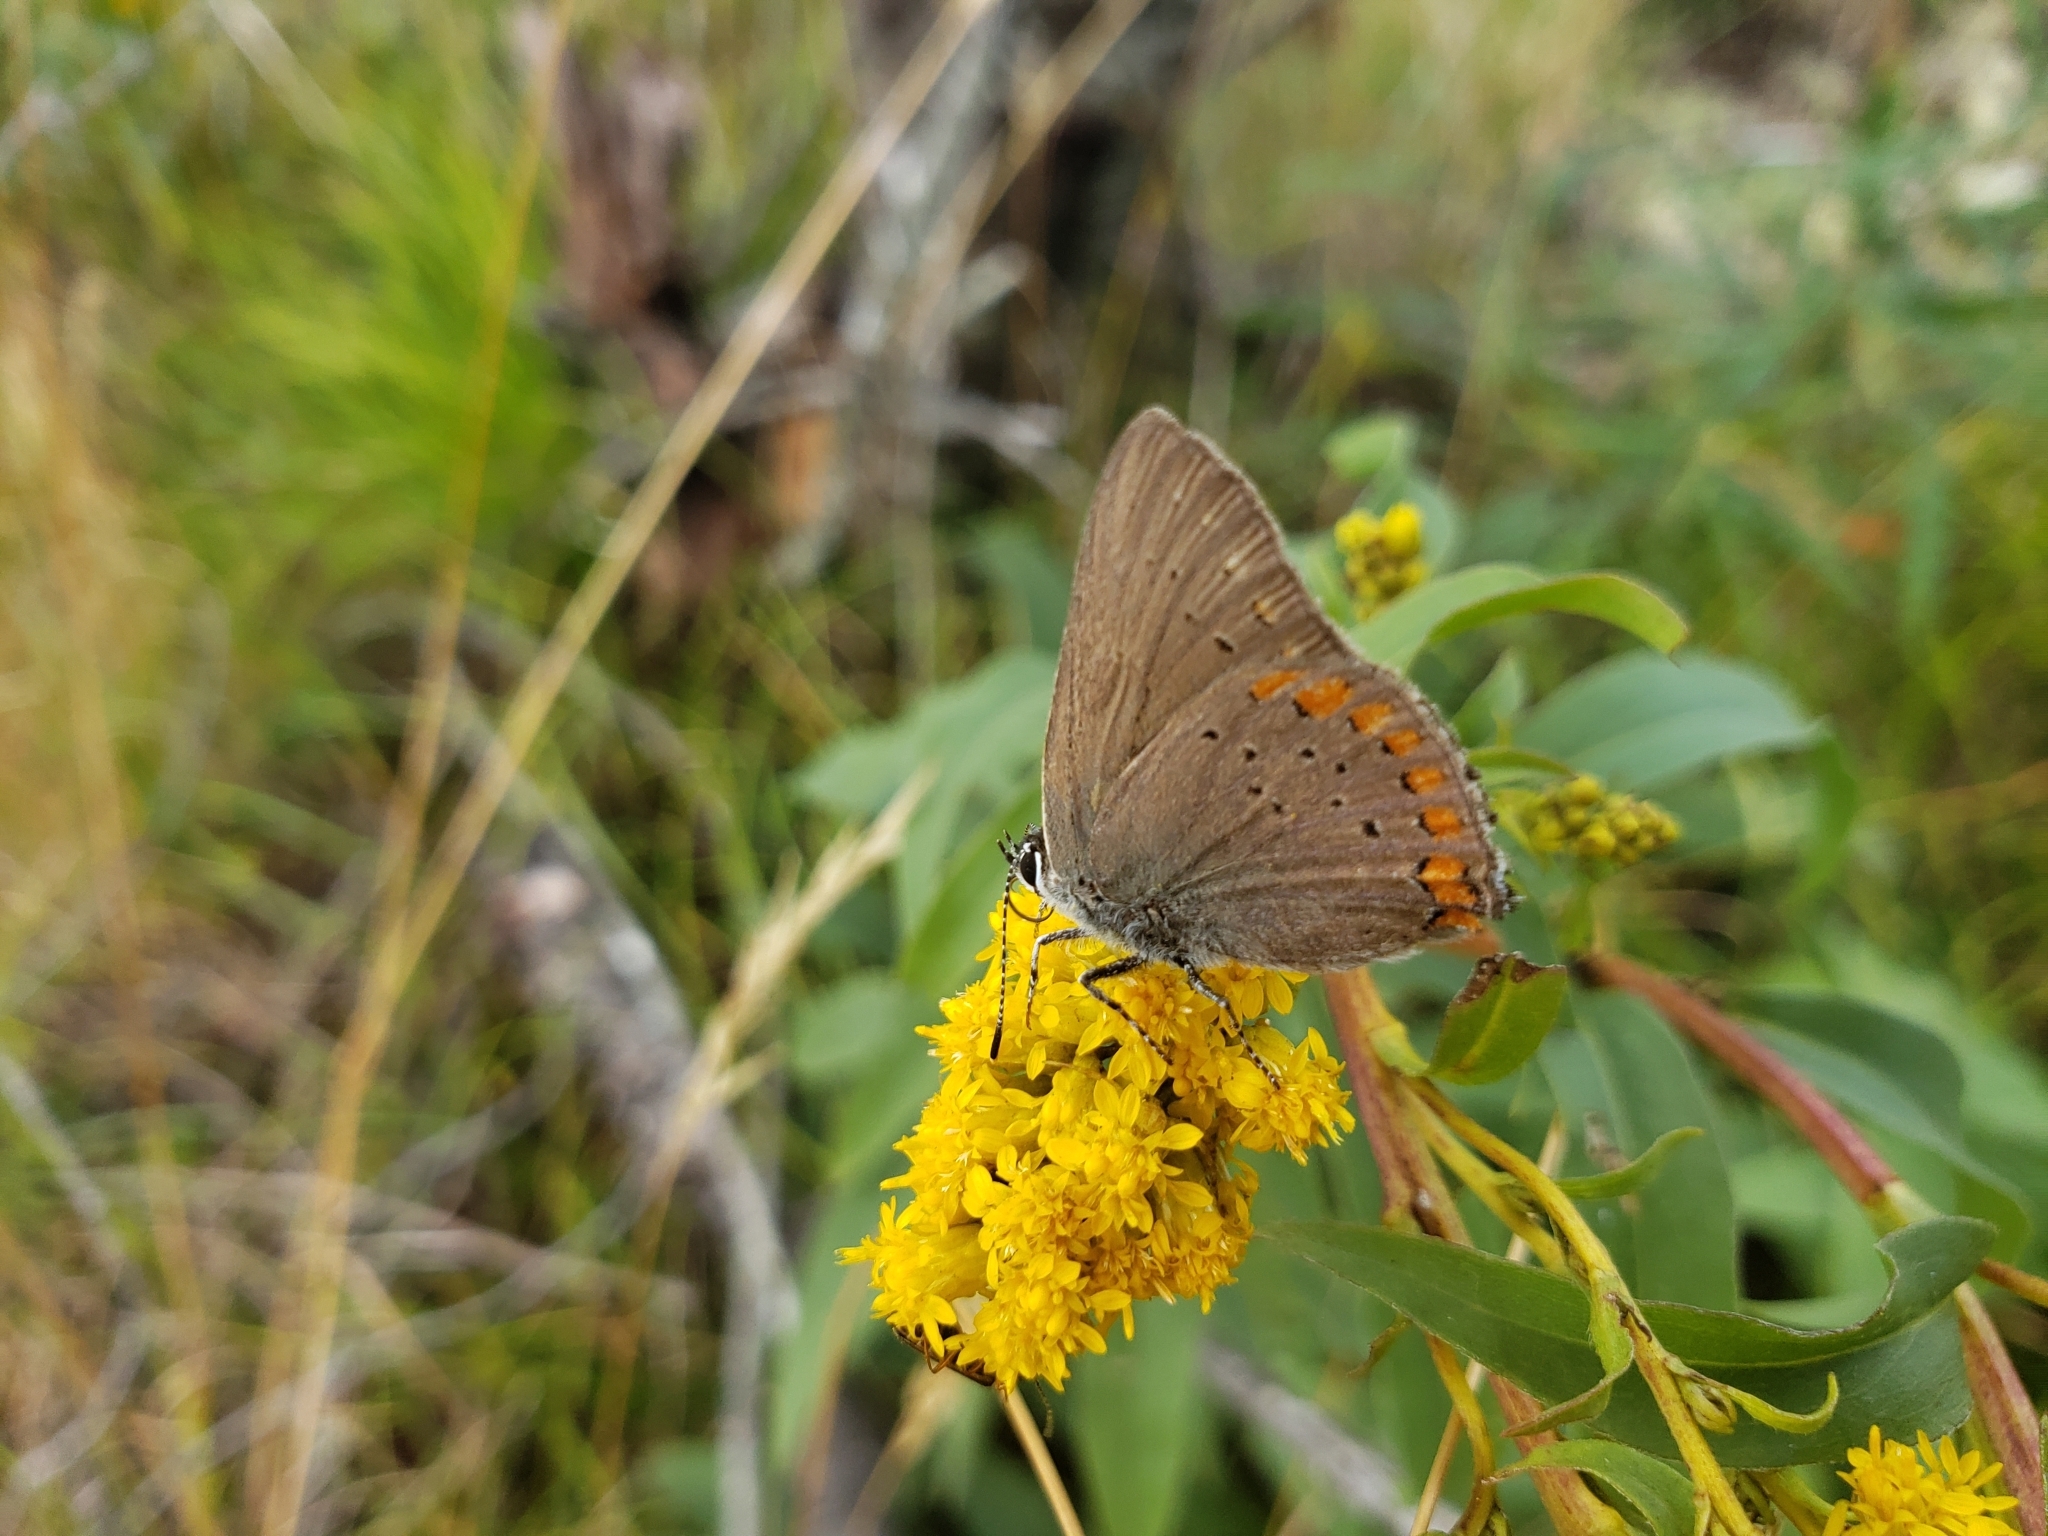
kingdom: Animalia
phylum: Arthropoda
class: Insecta
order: Lepidoptera
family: Lycaenidae
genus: Harkenclenus
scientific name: Harkenclenus titus
